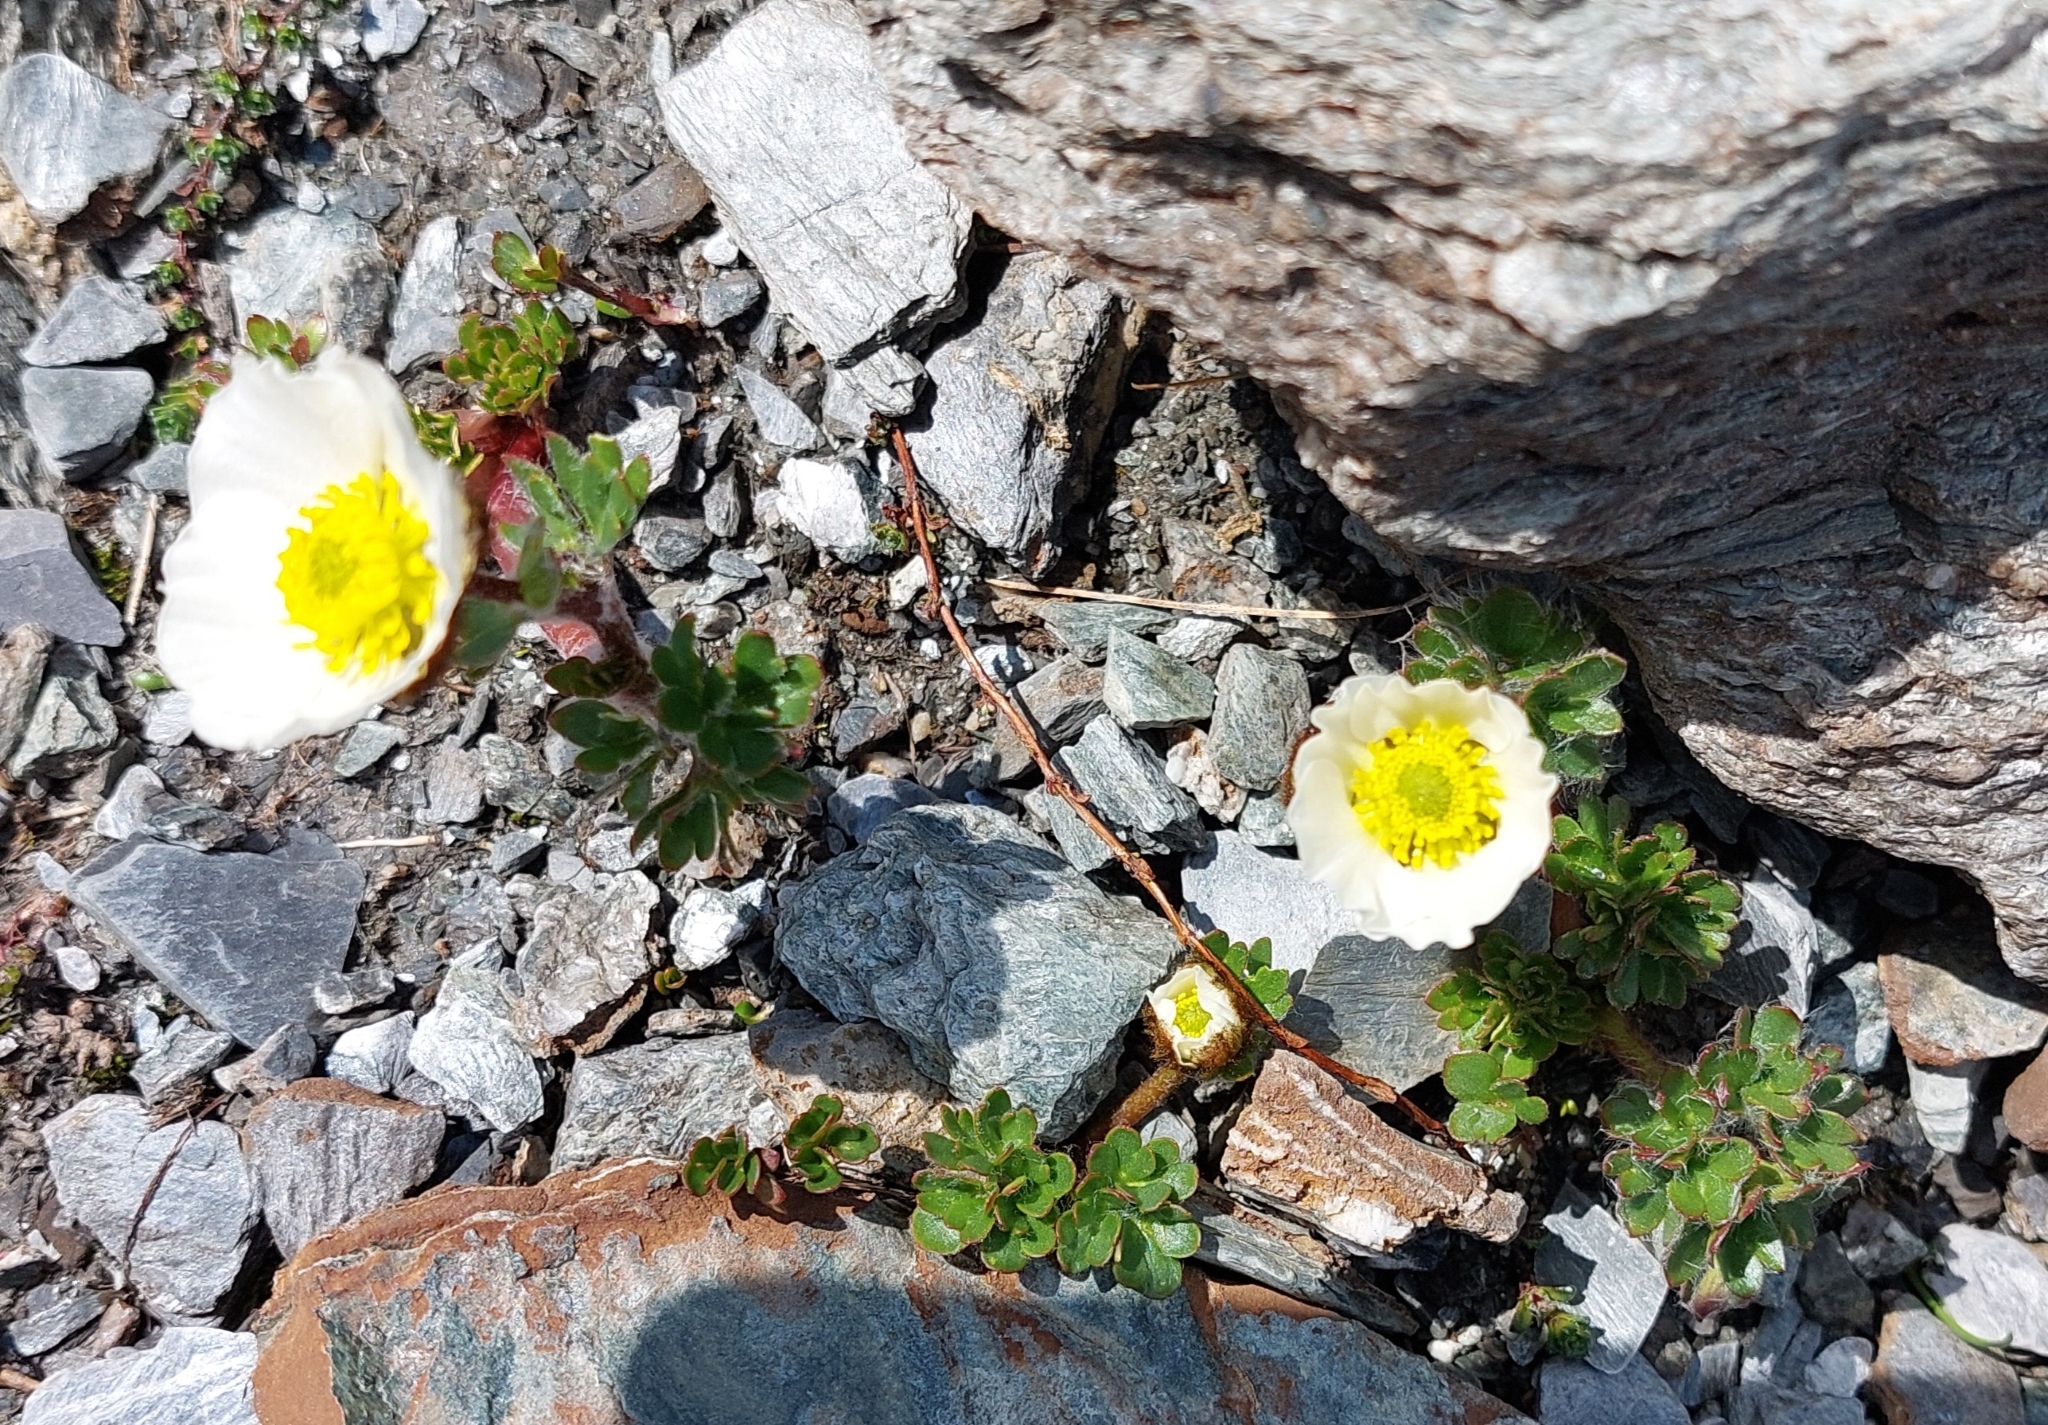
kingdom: Plantae
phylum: Tracheophyta
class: Magnoliopsida
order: Ranunculales
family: Ranunculaceae
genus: Ranunculus
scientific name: Ranunculus glacialis
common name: Glacier buttercup
